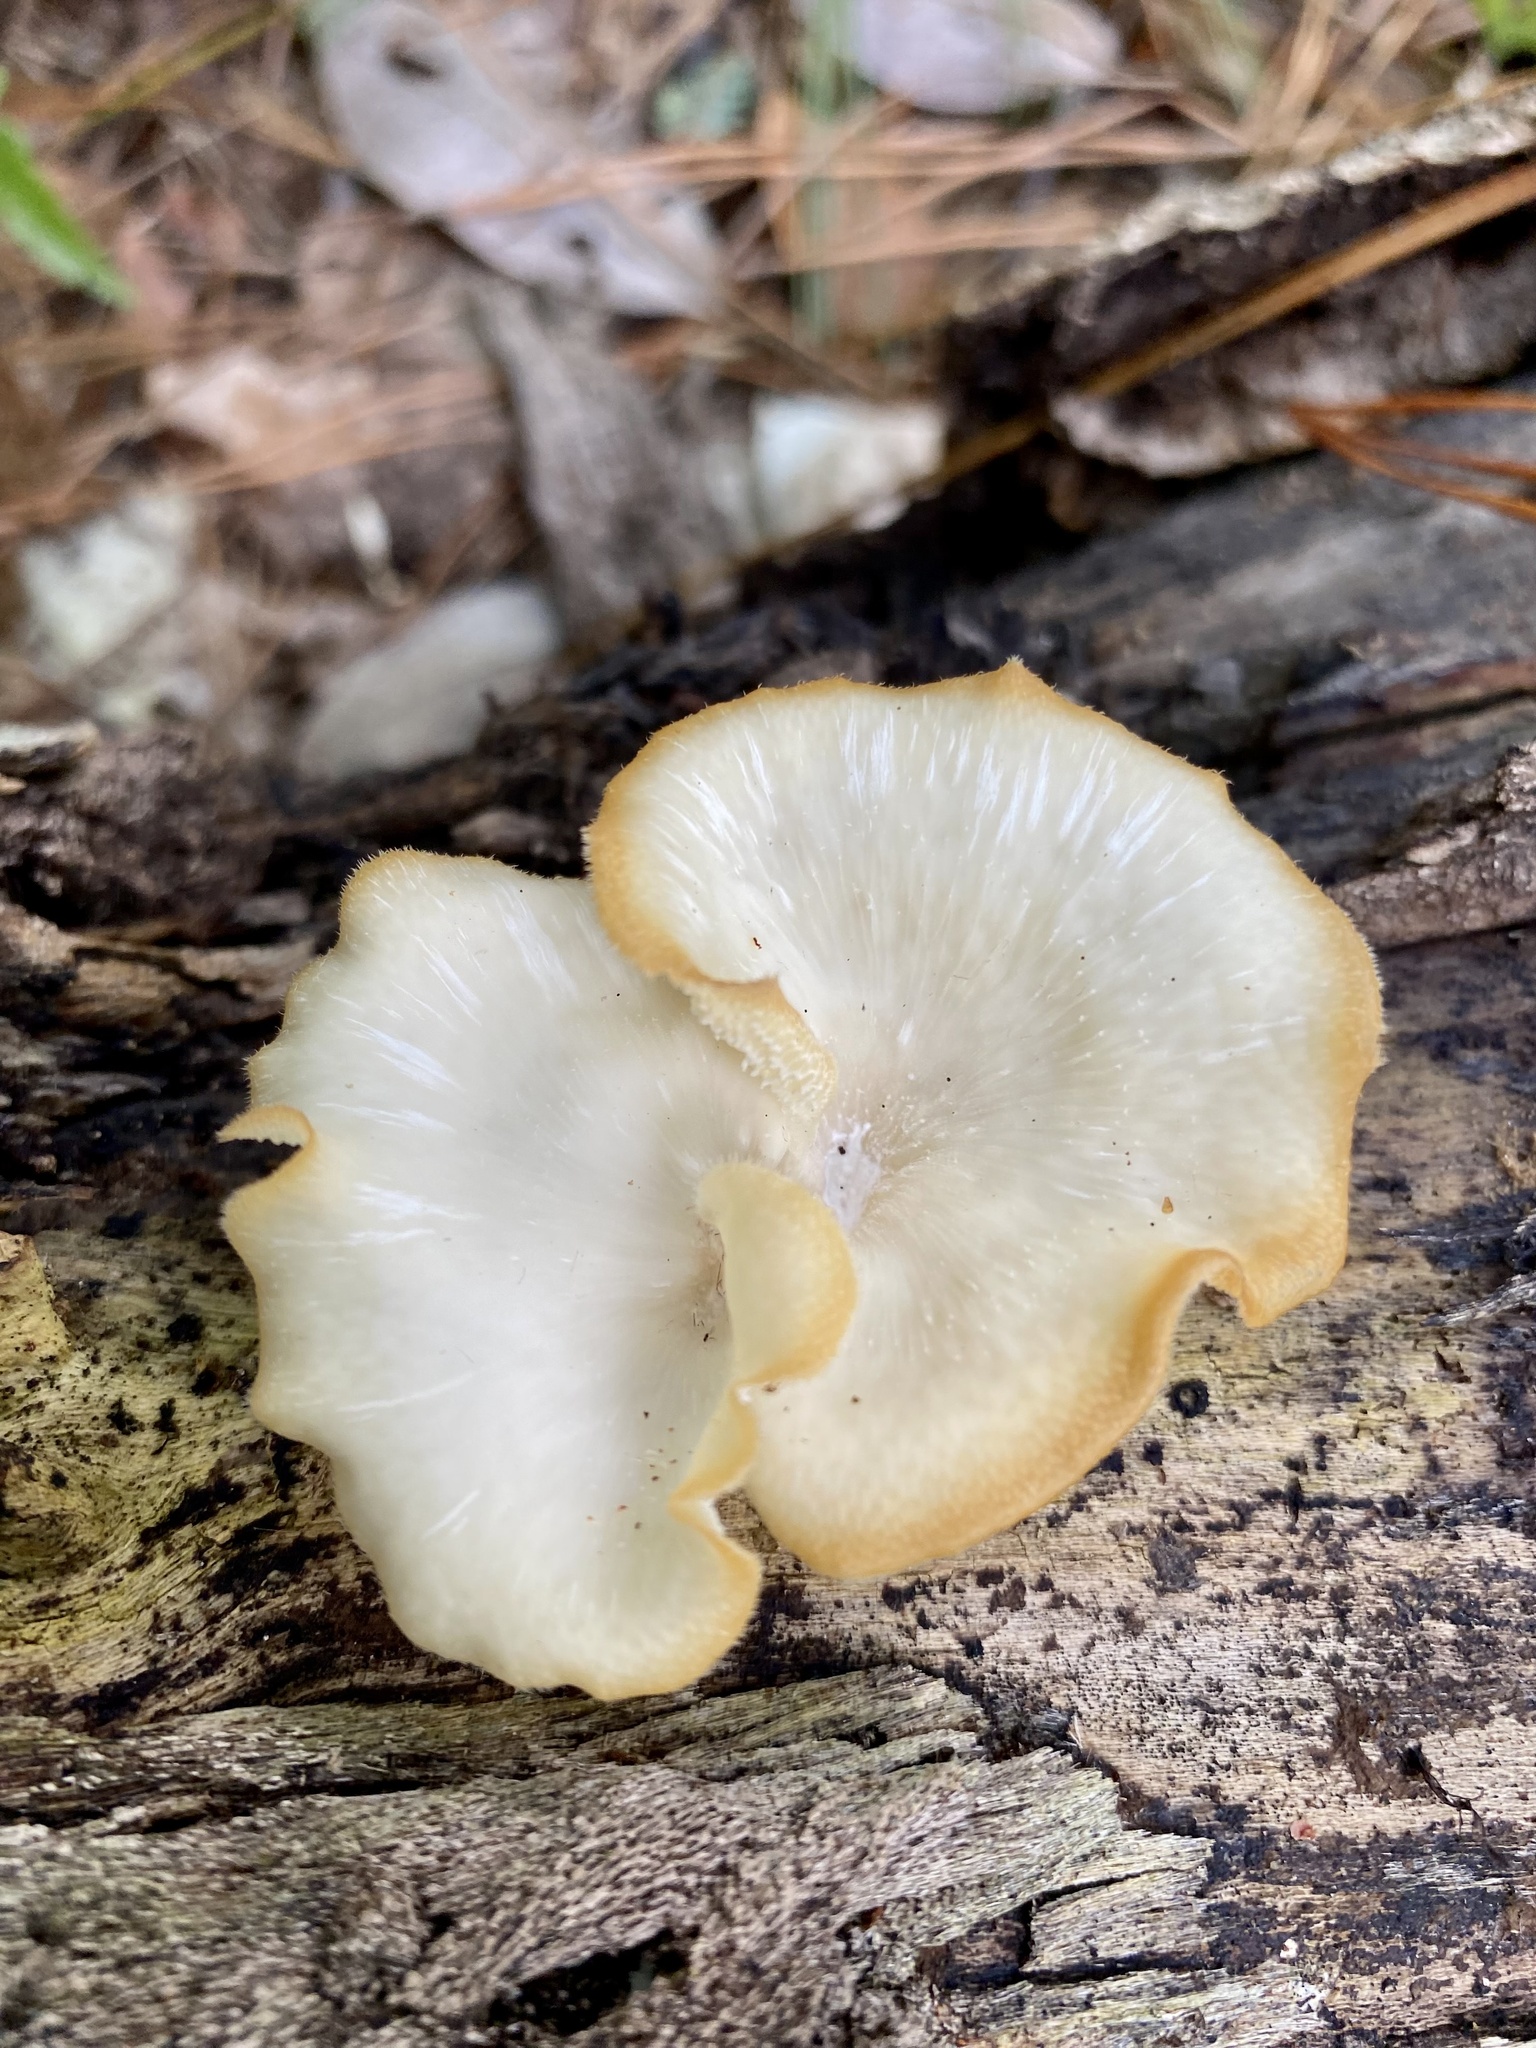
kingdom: Fungi
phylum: Basidiomycota
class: Agaricomycetes
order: Polyporales
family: Polyporaceae
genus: Favolus
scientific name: Favolus tenuiculus
